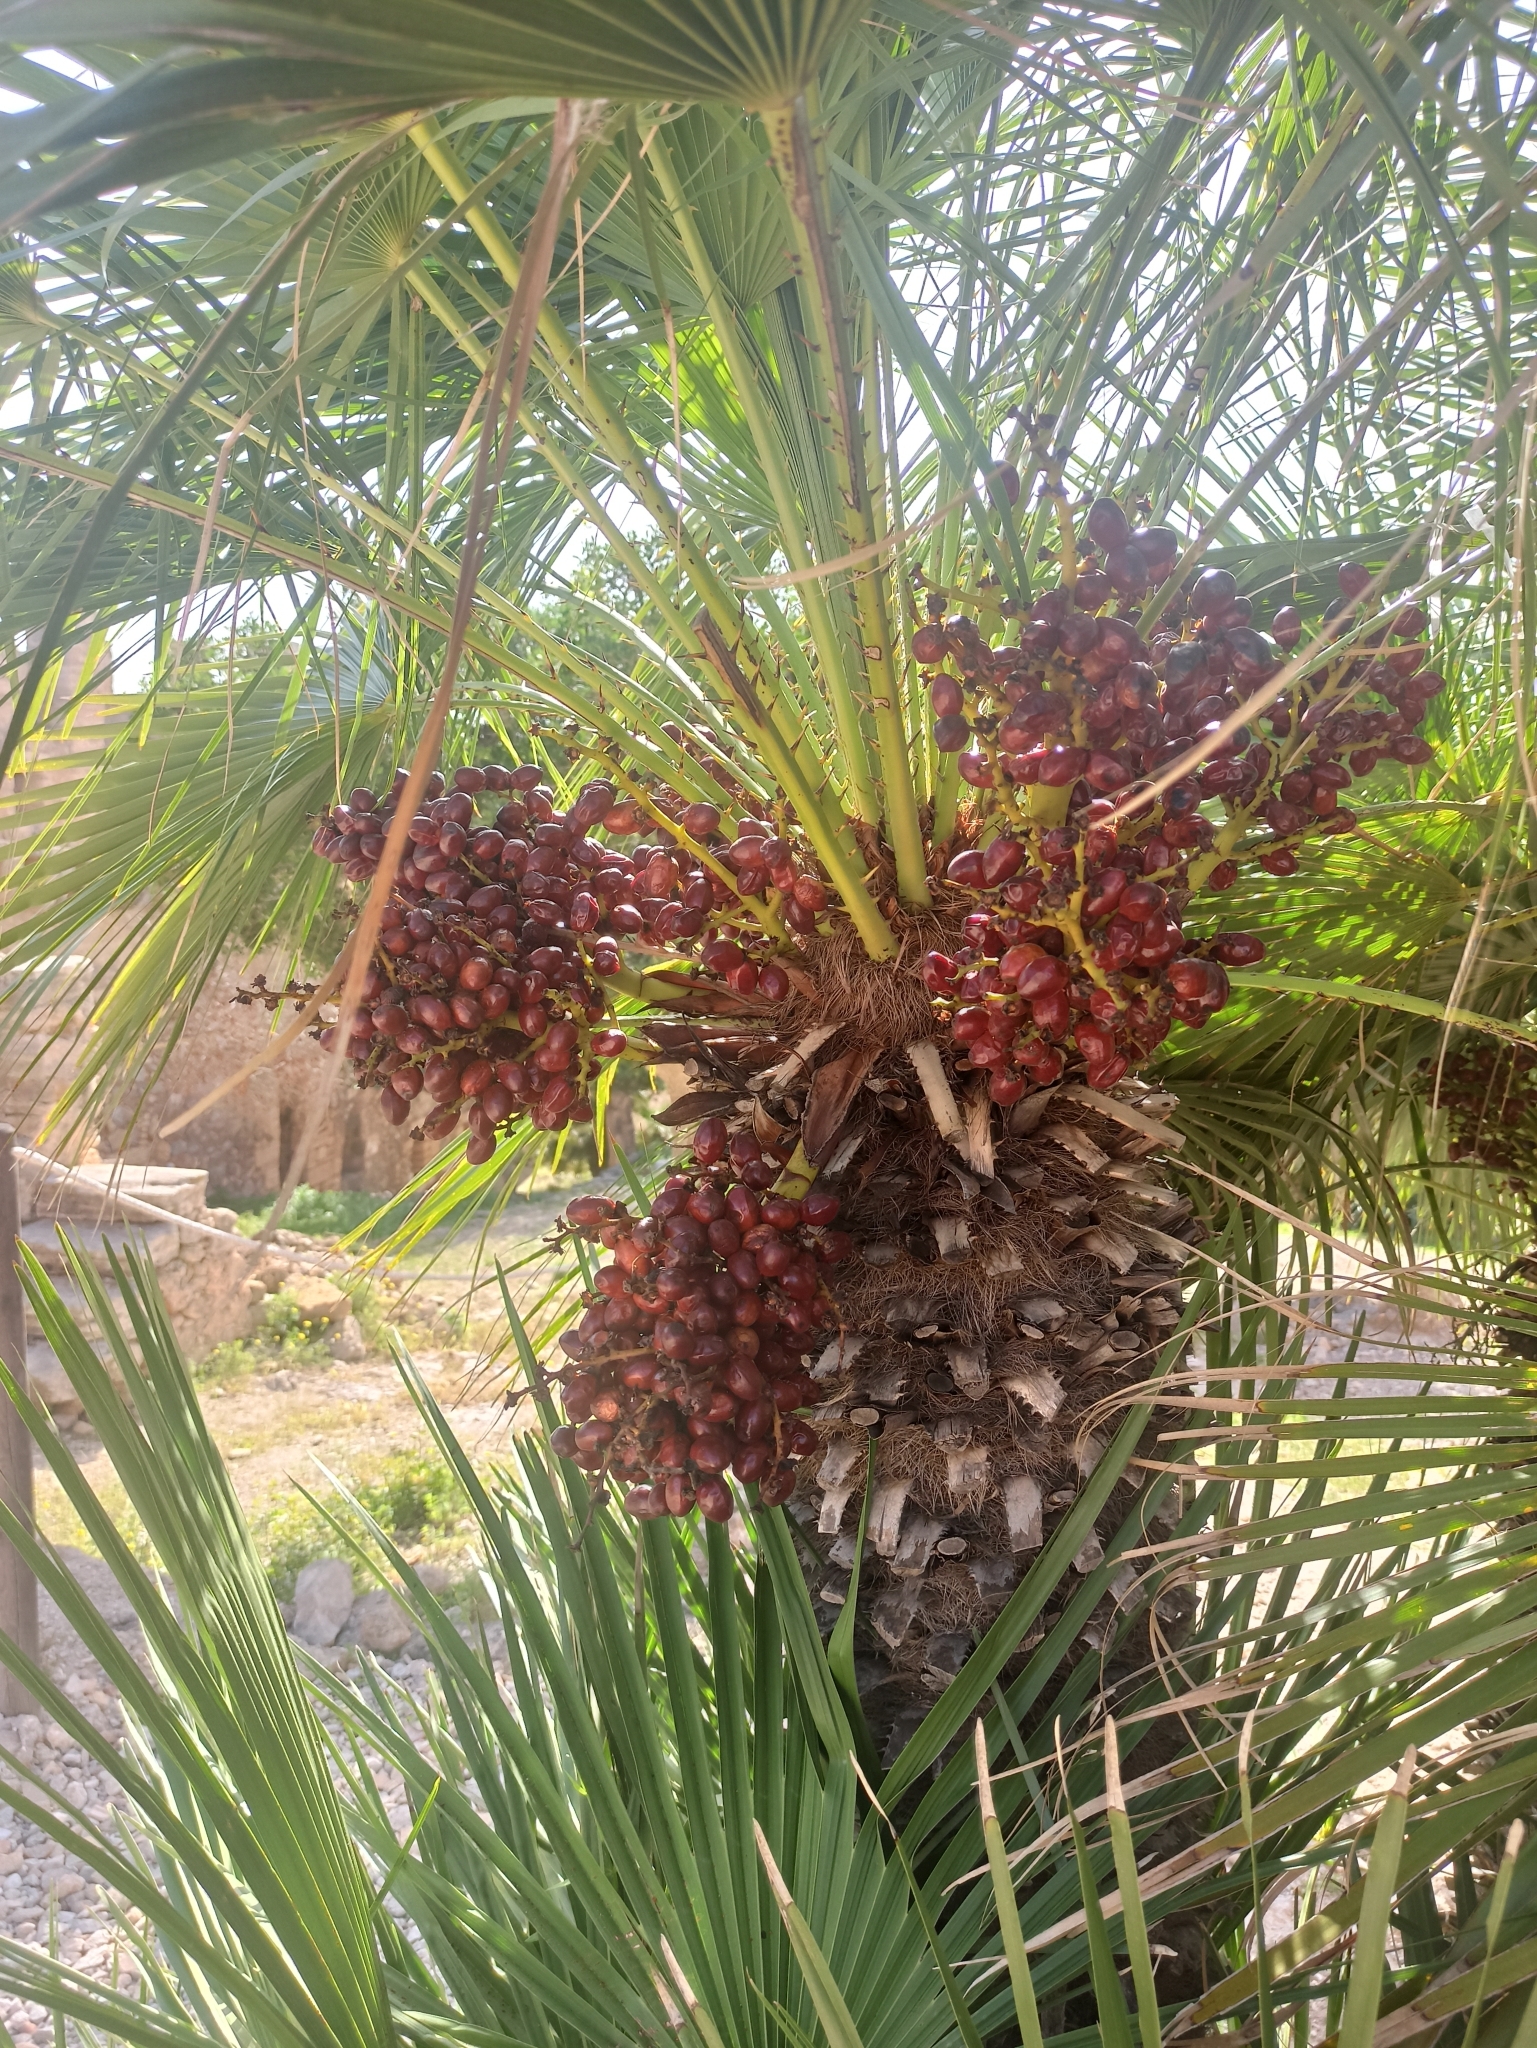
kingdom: Plantae
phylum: Tracheophyta
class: Liliopsida
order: Arecales
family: Arecaceae
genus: Chamaerops
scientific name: Chamaerops humilis
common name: Dwarf fan palm
